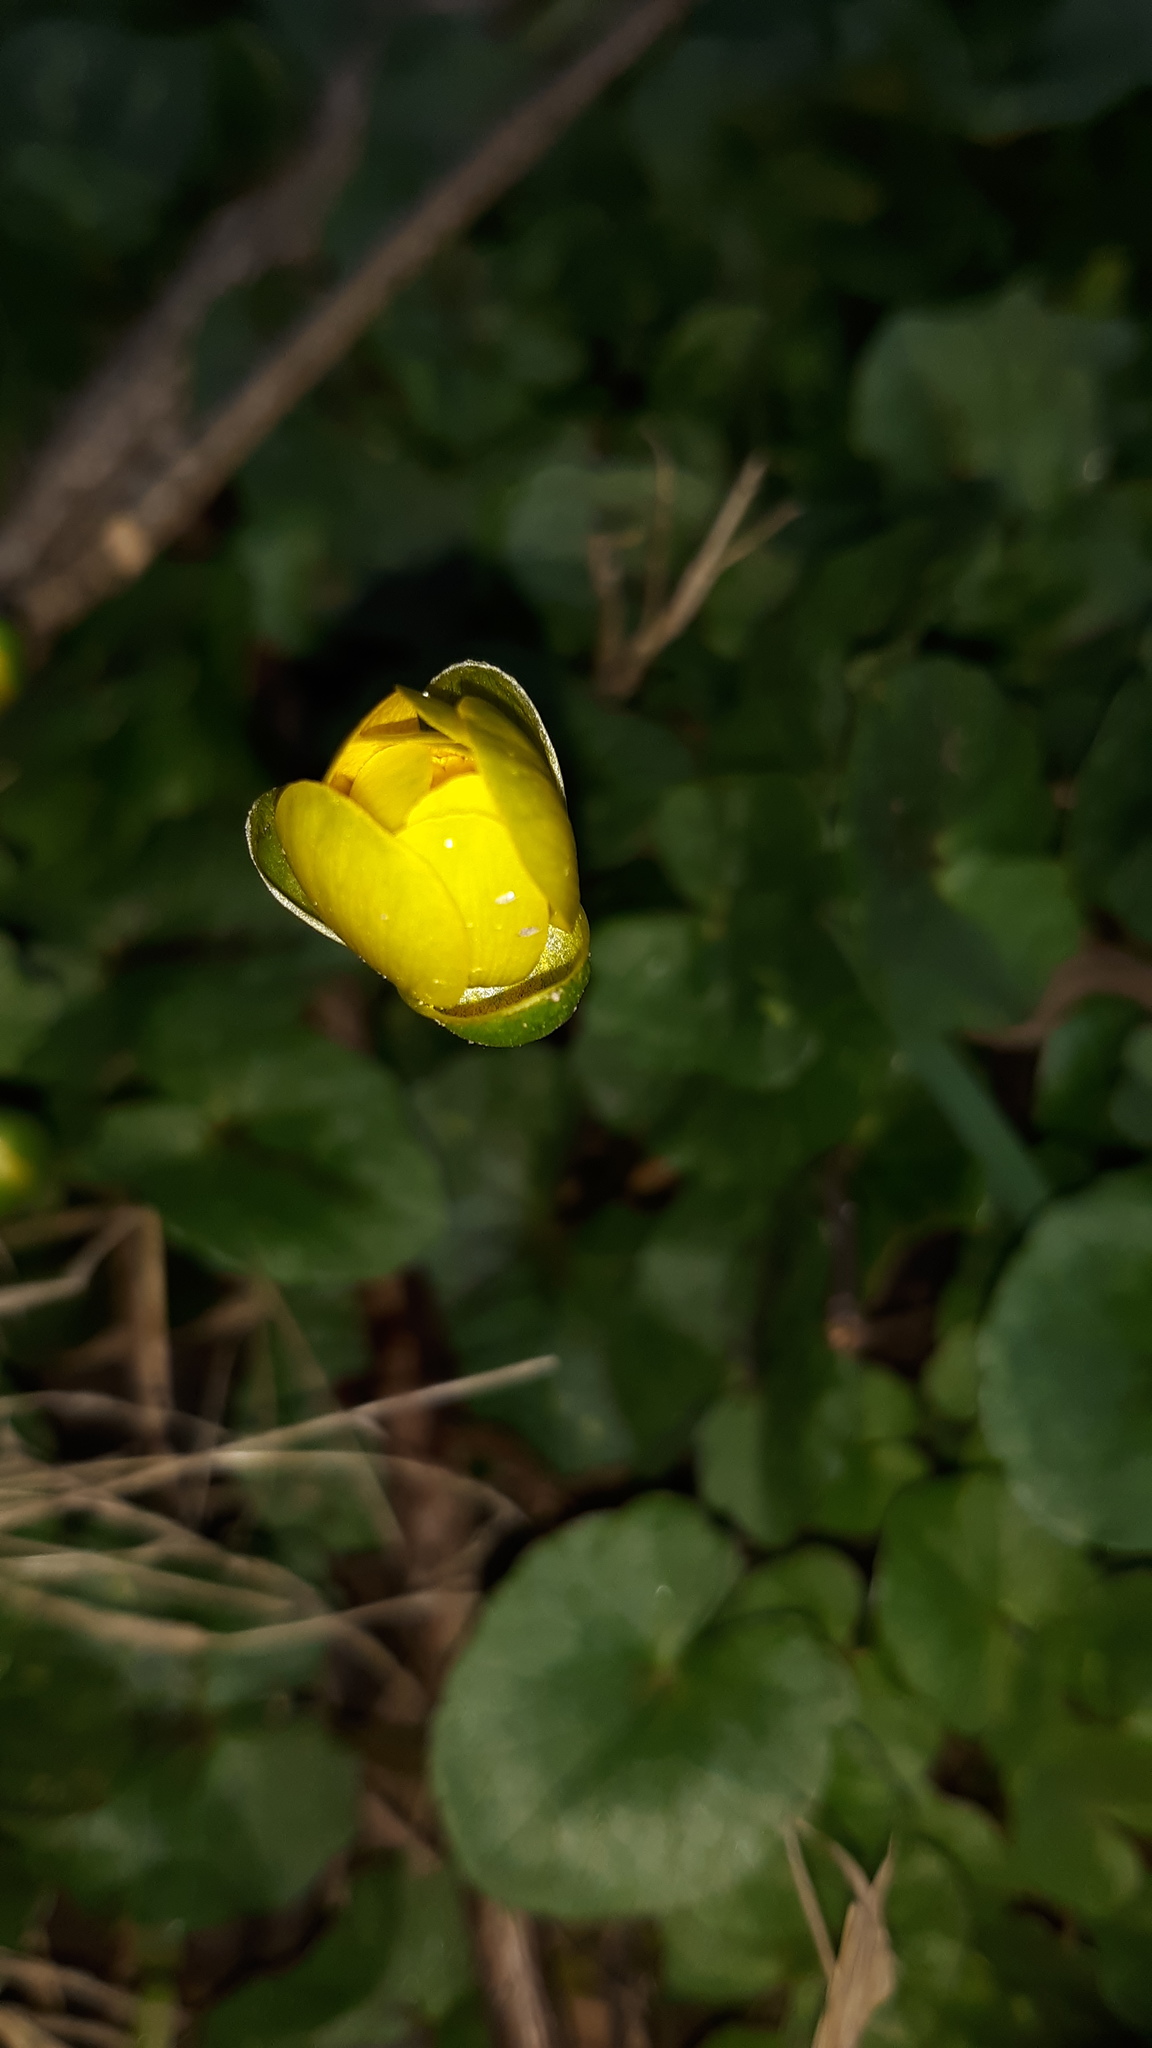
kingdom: Plantae
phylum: Tracheophyta
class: Magnoliopsida
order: Ranunculales
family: Ranunculaceae
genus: Ficaria
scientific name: Ficaria verna
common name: Lesser celandine
